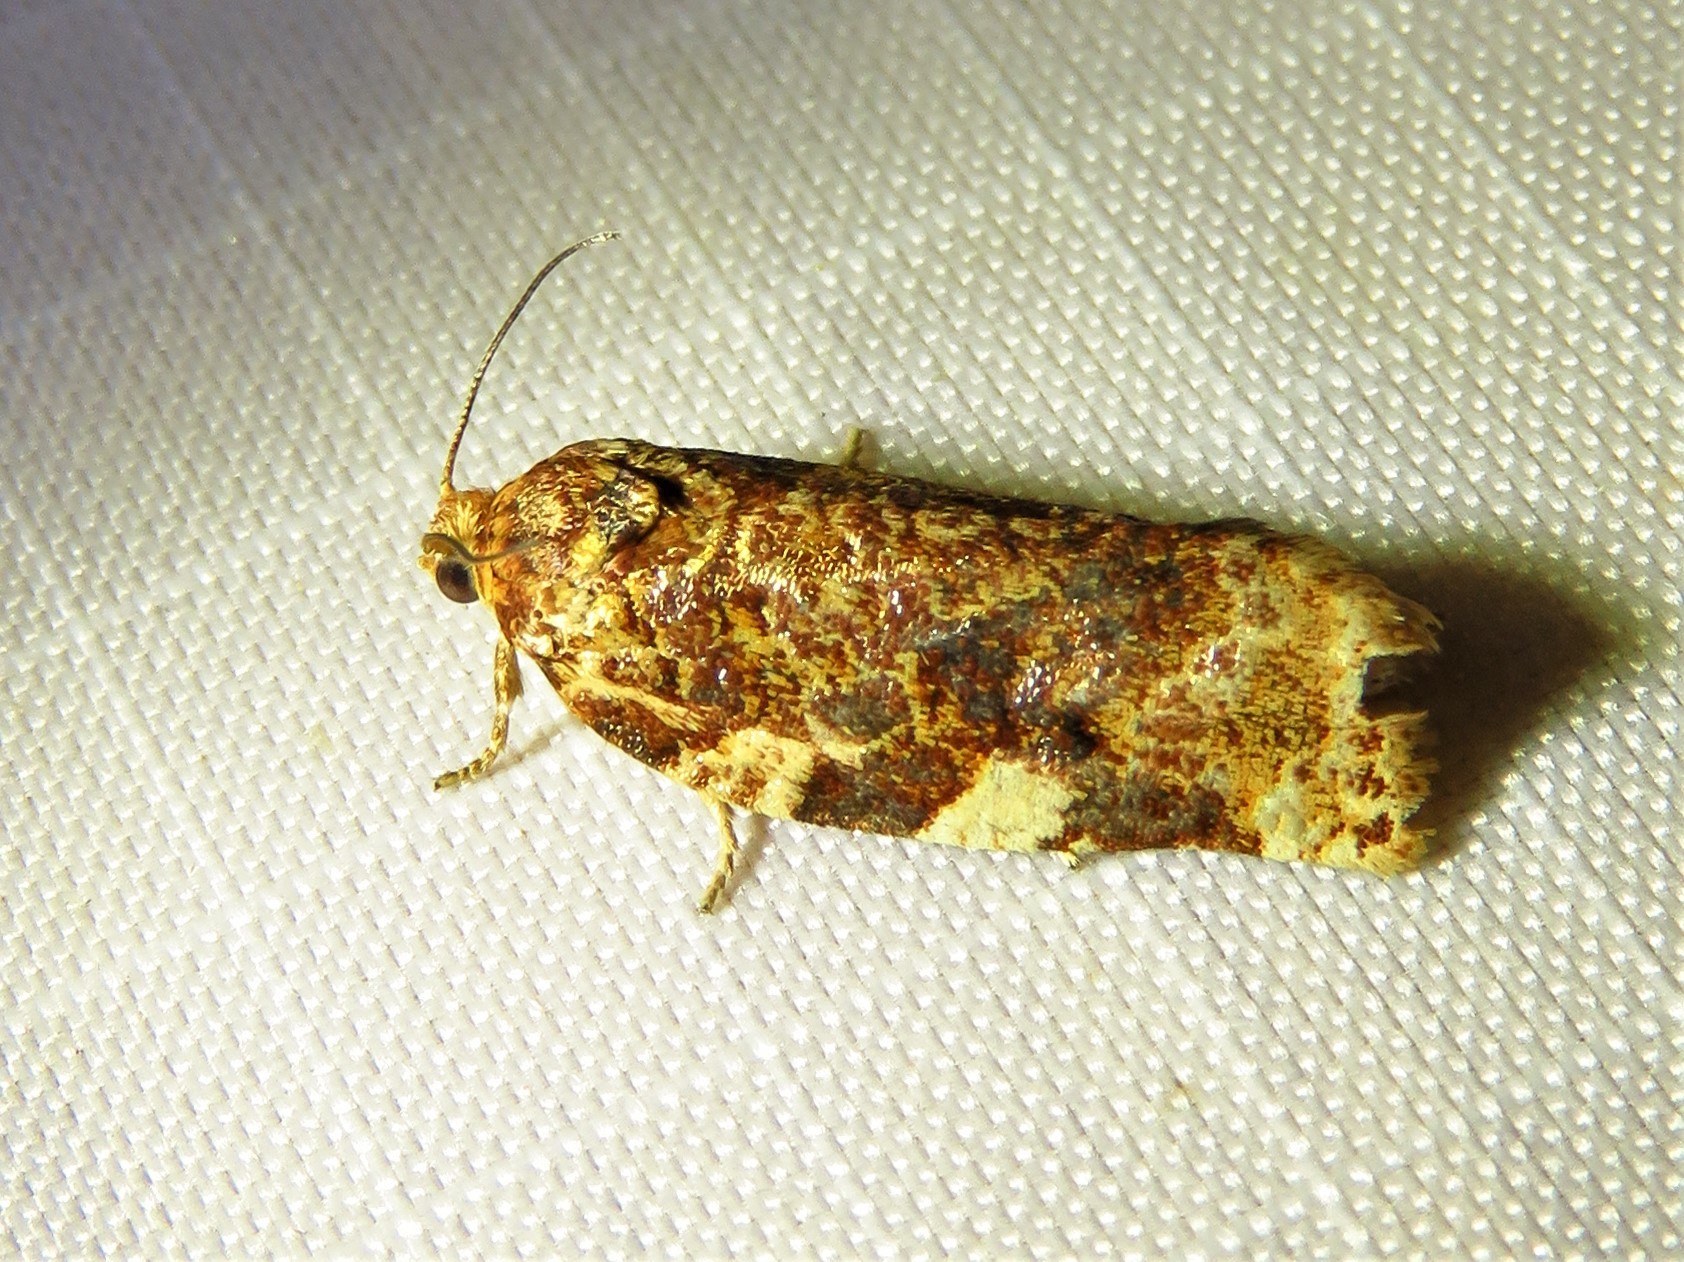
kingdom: Animalia
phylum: Arthropoda
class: Insecta
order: Lepidoptera
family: Tortricidae
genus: Archips
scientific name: Archips argyrospila
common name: Fruit-tree leafroller moth
